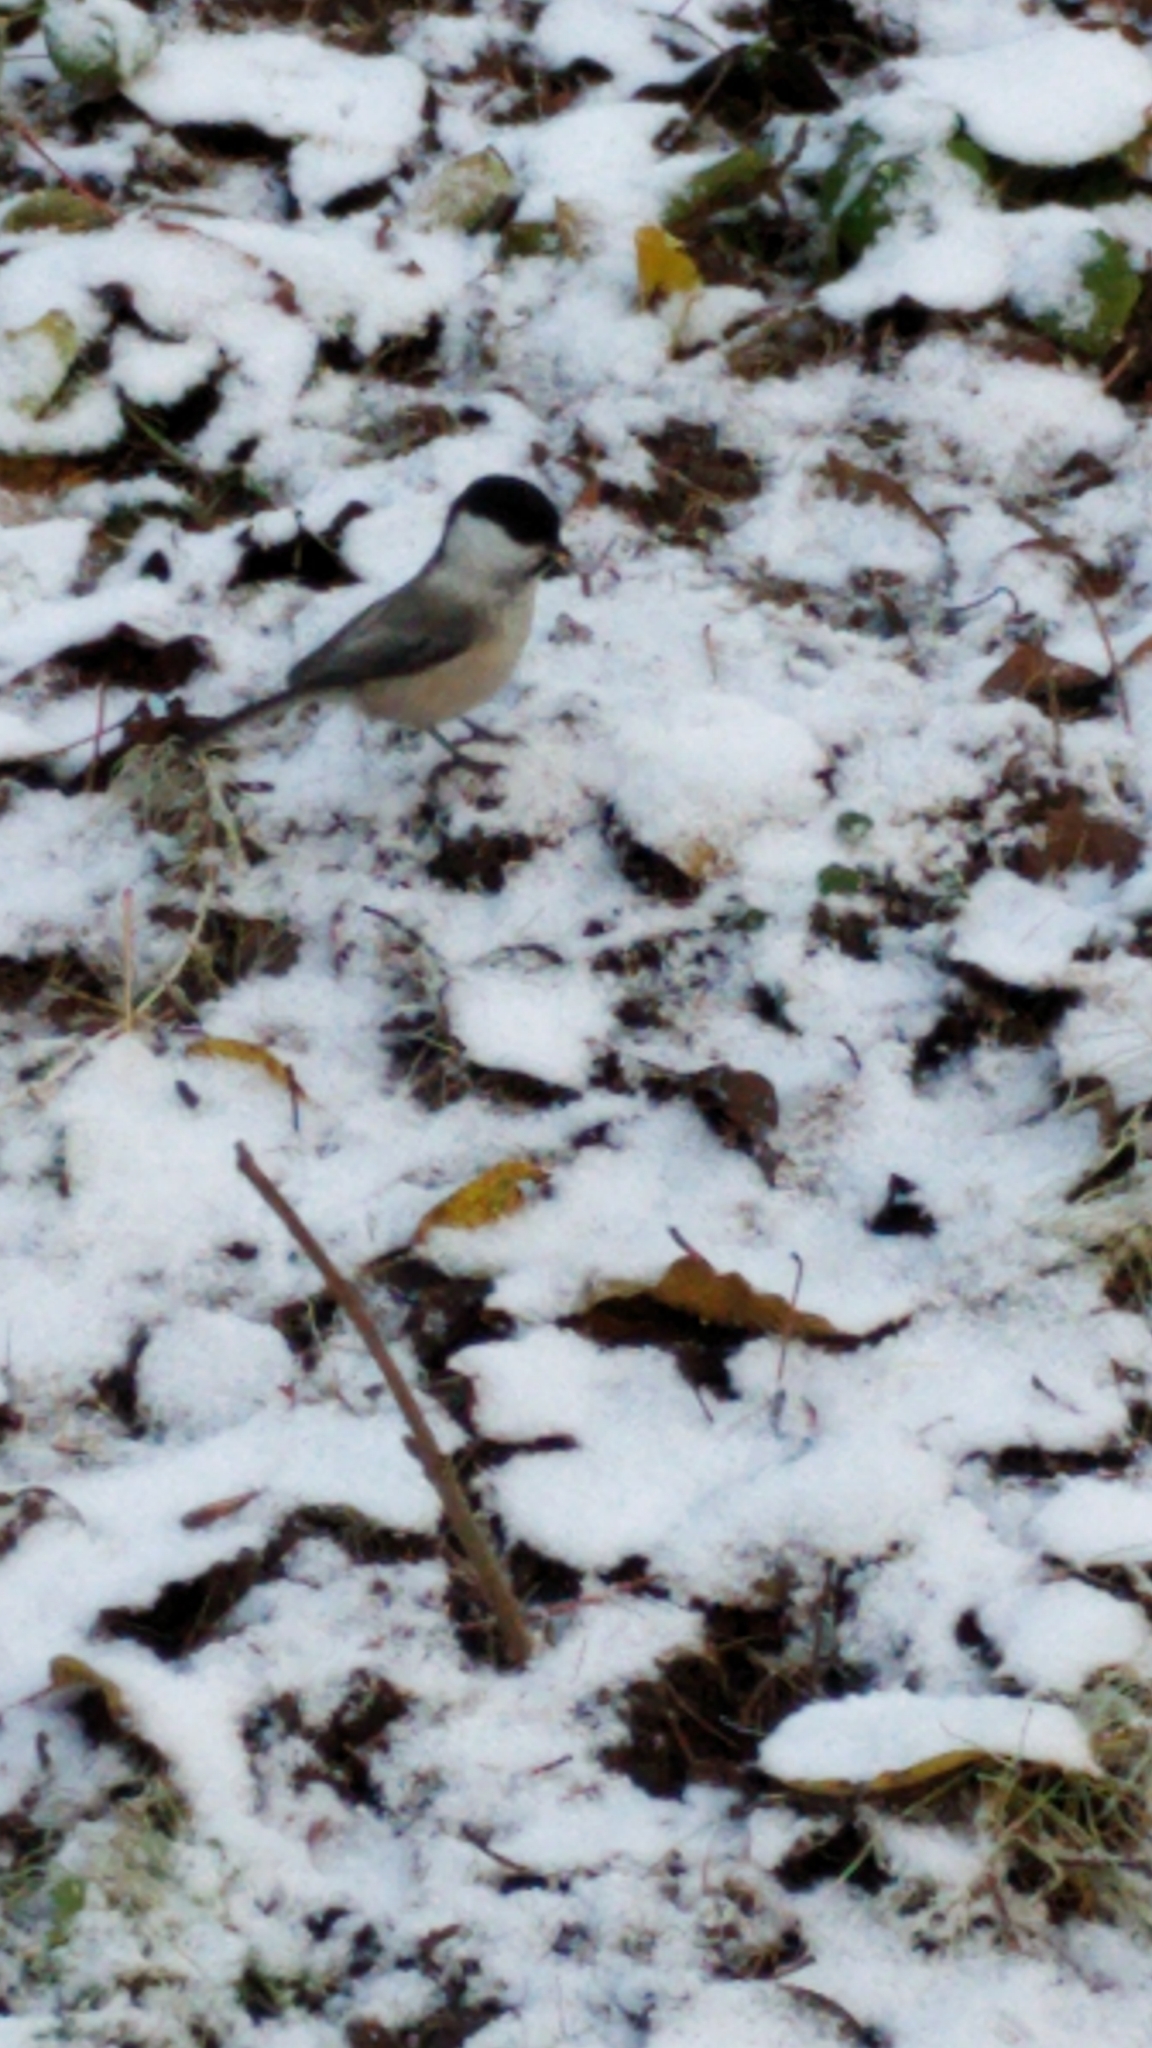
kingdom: Animalia
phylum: Chordata
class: Aves
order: Passeriformes
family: Paridae
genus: Poecile
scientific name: Poecile montanus
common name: Willow tit
